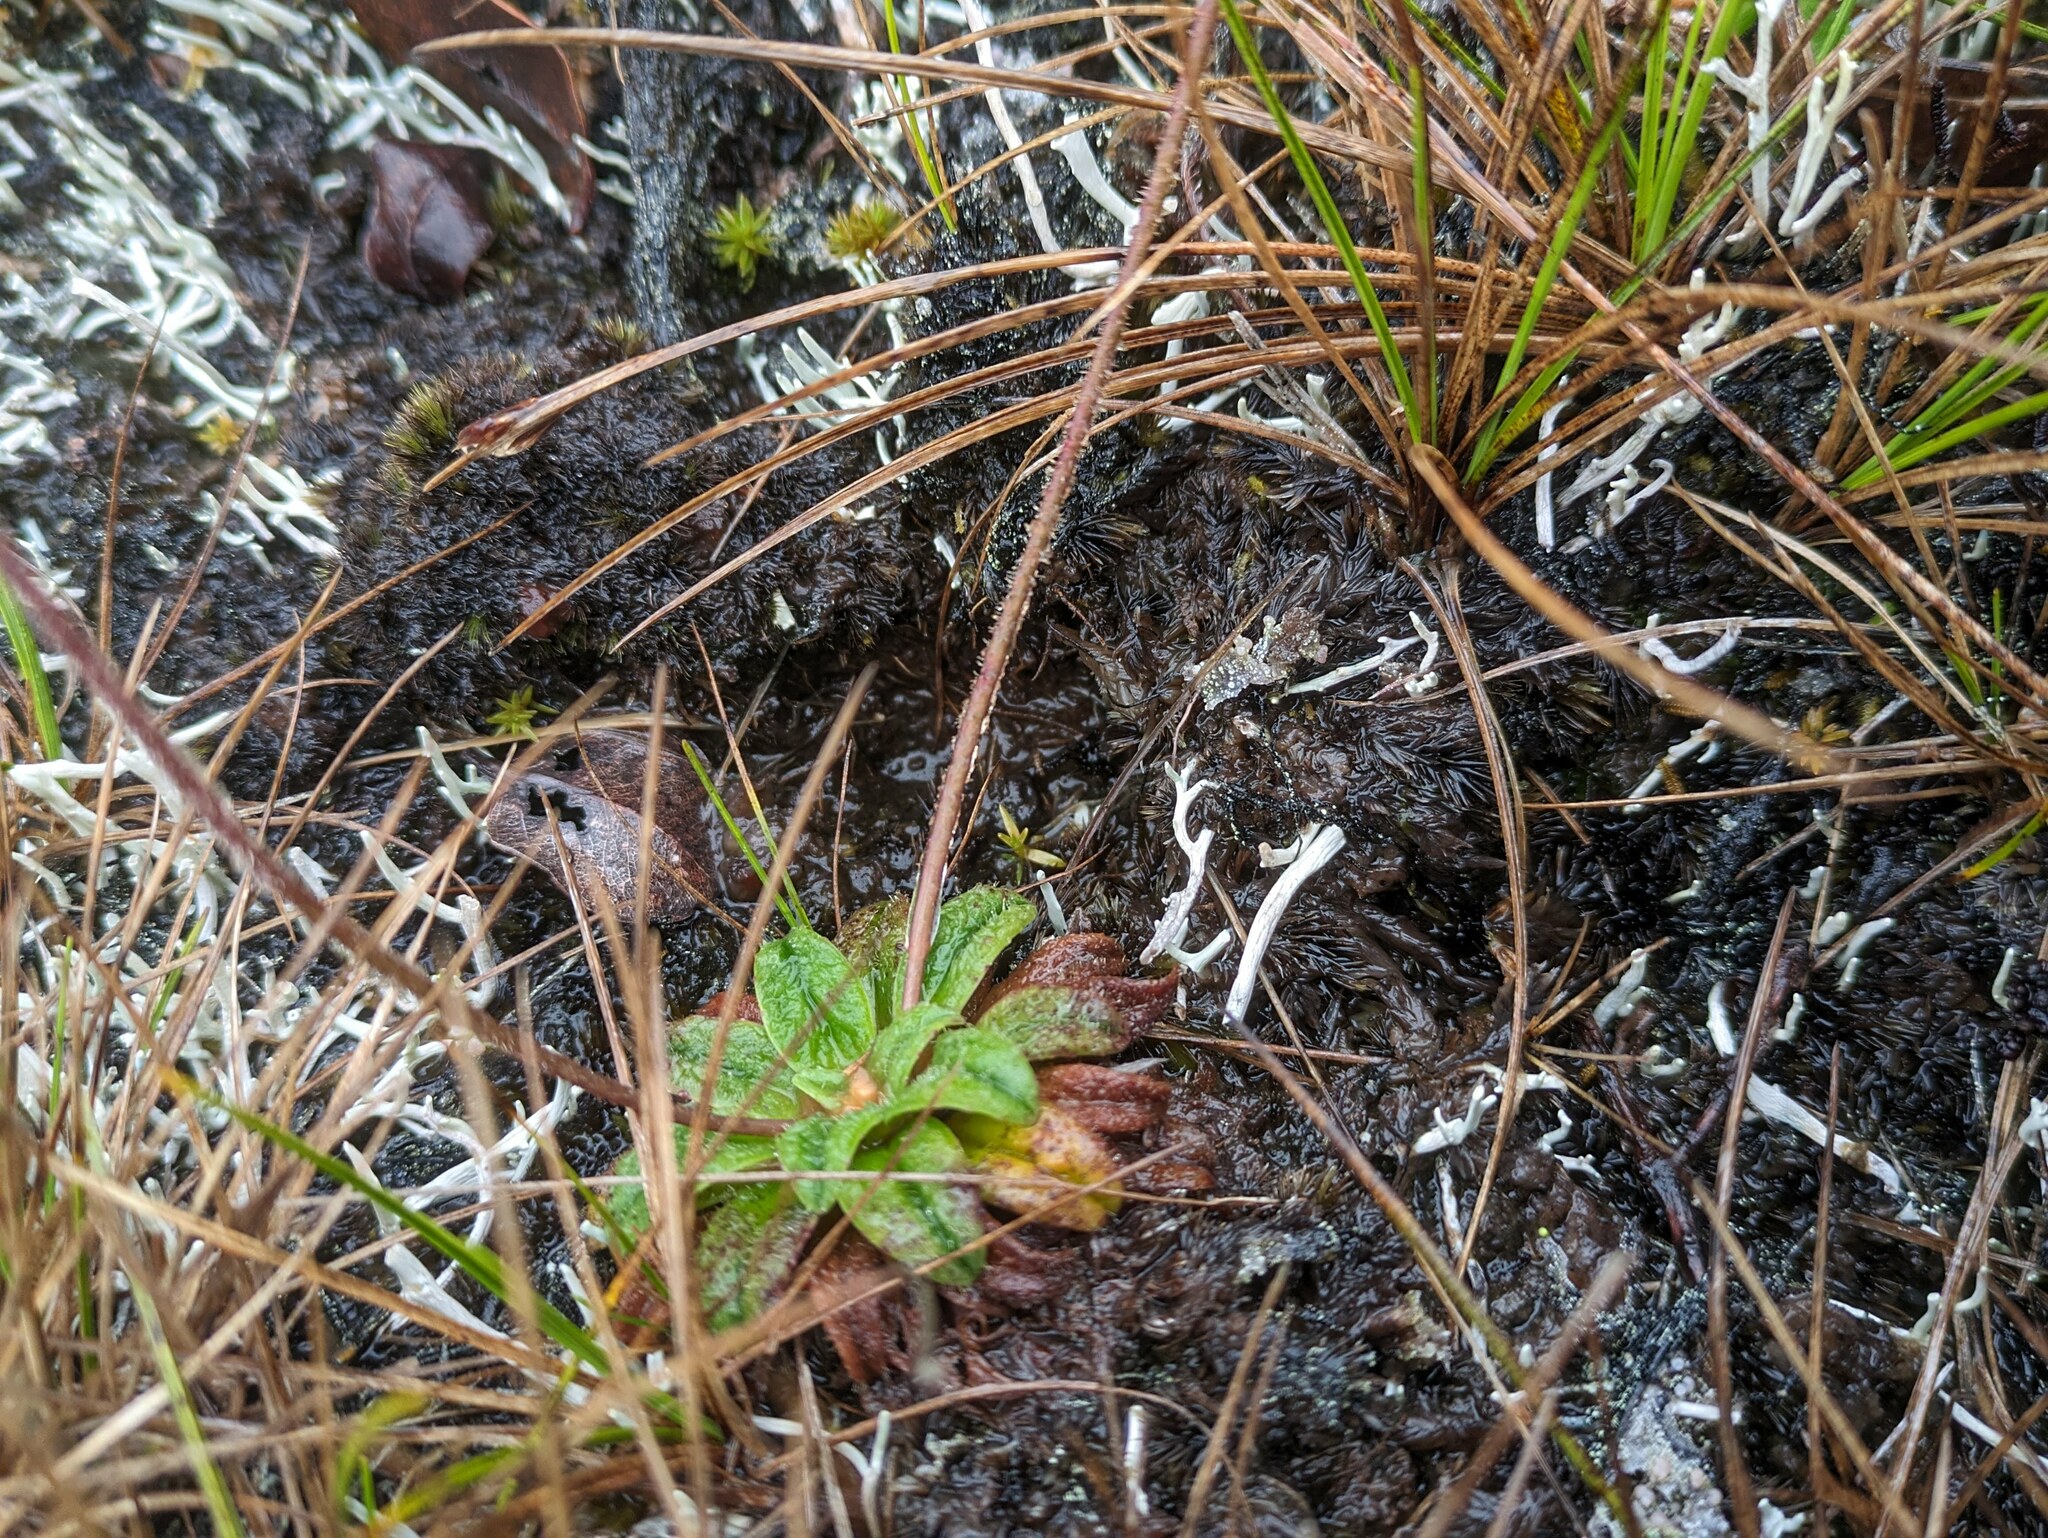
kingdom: Plantae
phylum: Tracheophyta
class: Magnoliopsida
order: Lamiales
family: Plantaginaceae
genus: Plantago
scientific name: Plantago pachyphylla
